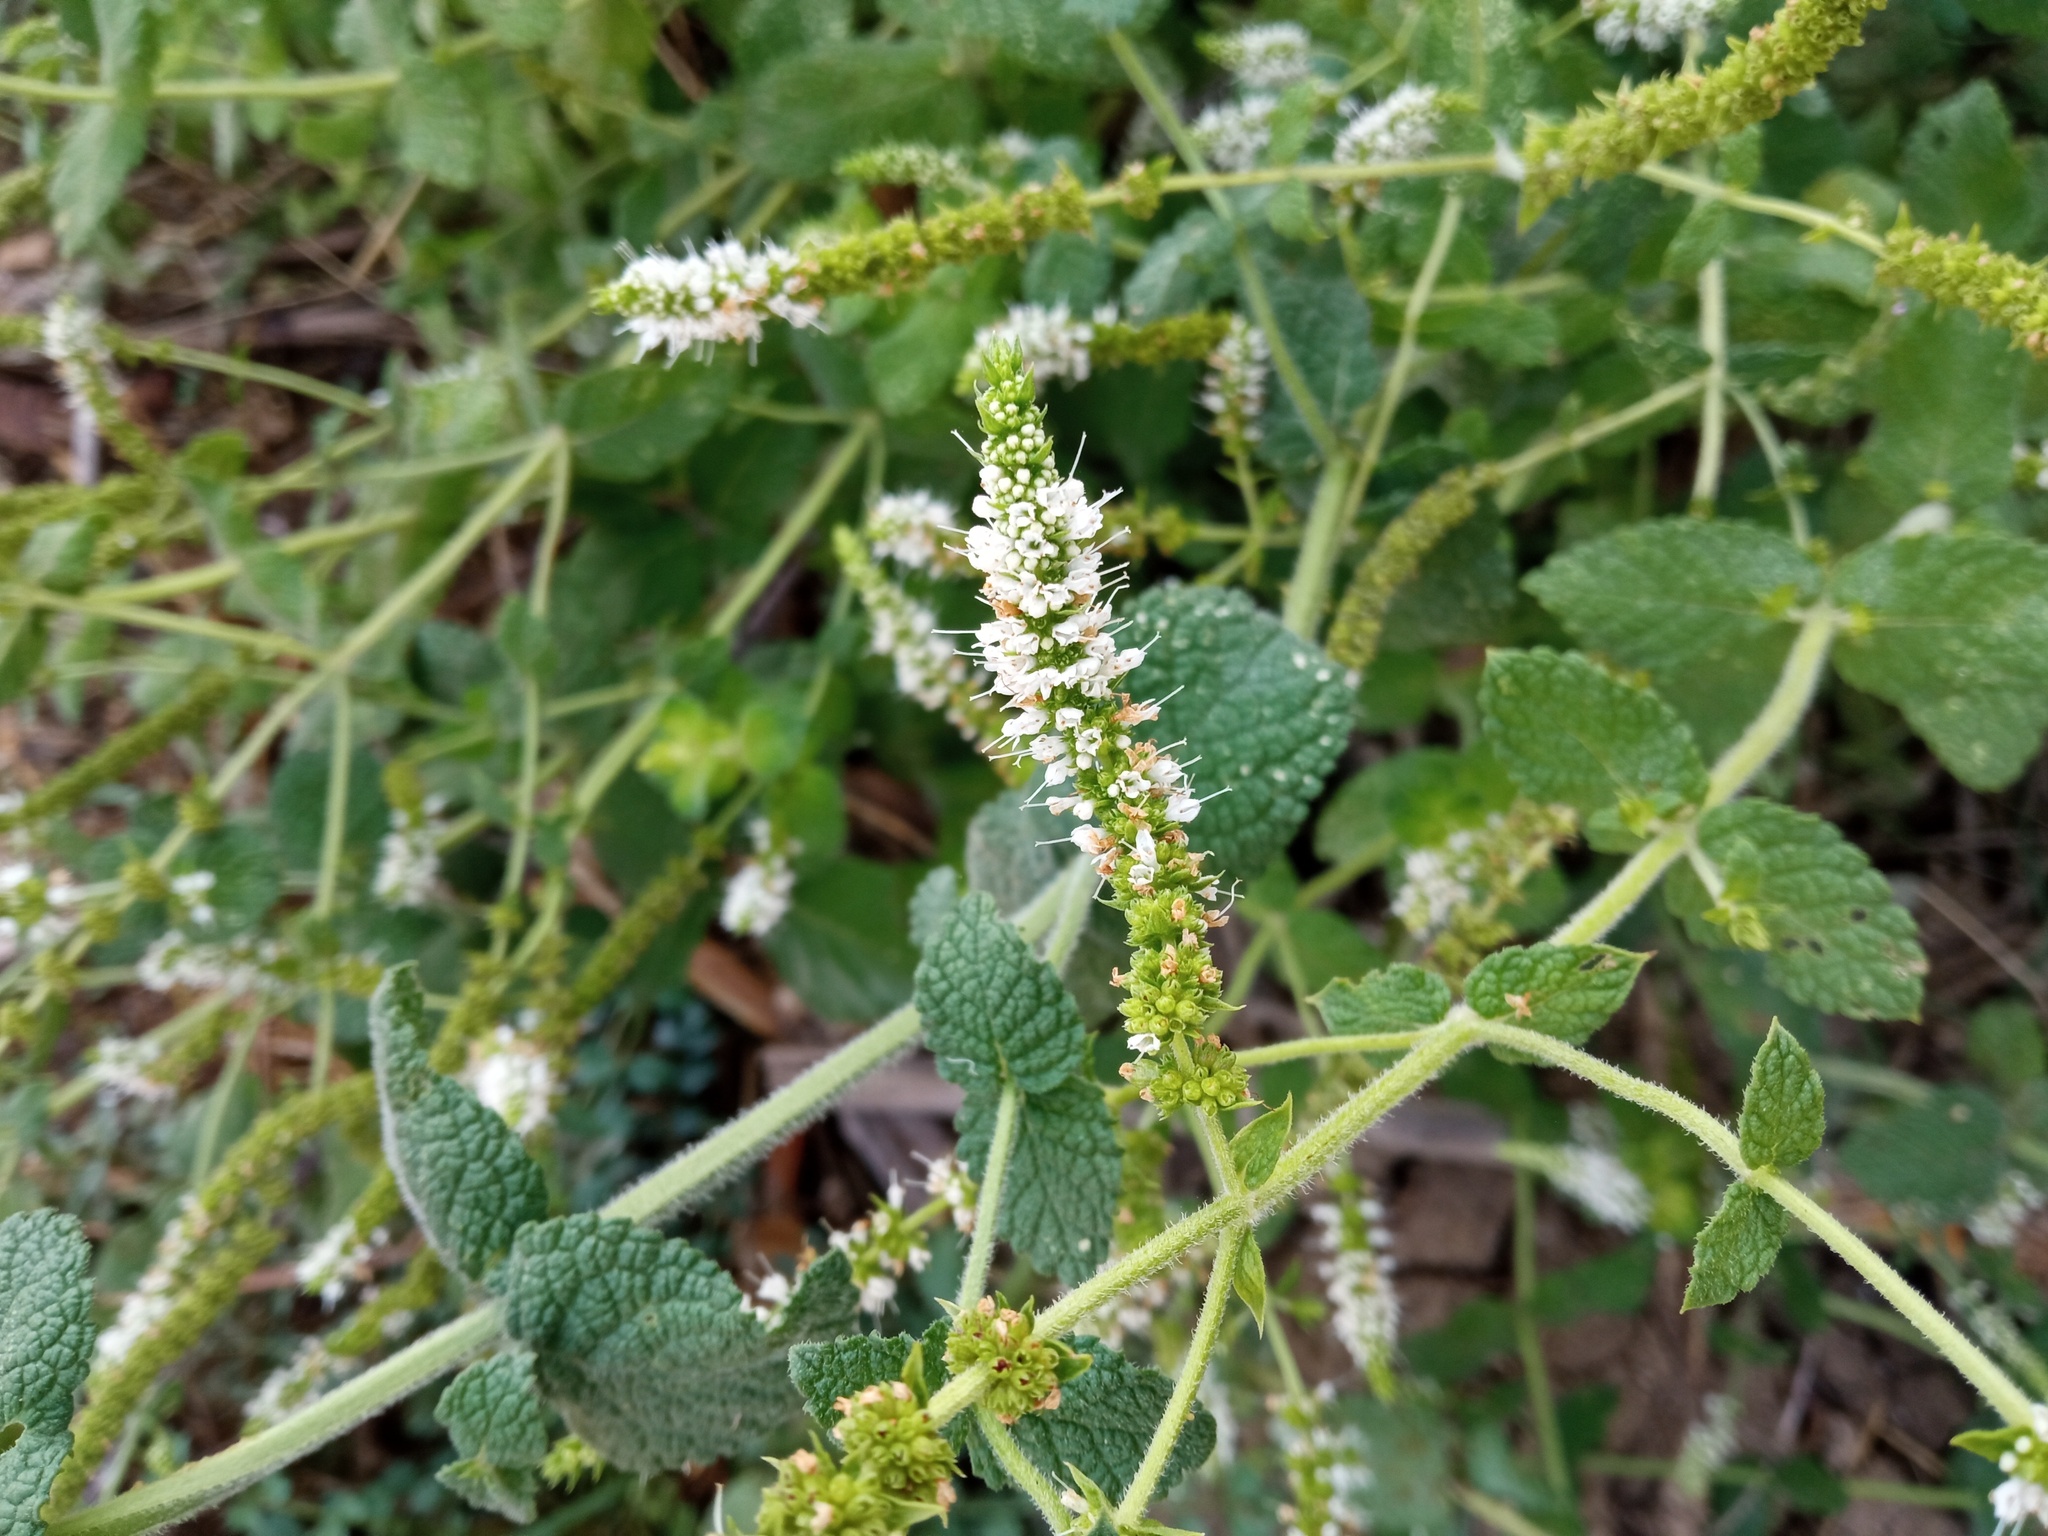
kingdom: Plantae
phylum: Tracheophyta
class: Magnoliopsida
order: Lamiales
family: Lamiaceae
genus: Mentha
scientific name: Mentha suaveolens
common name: Apple mint
